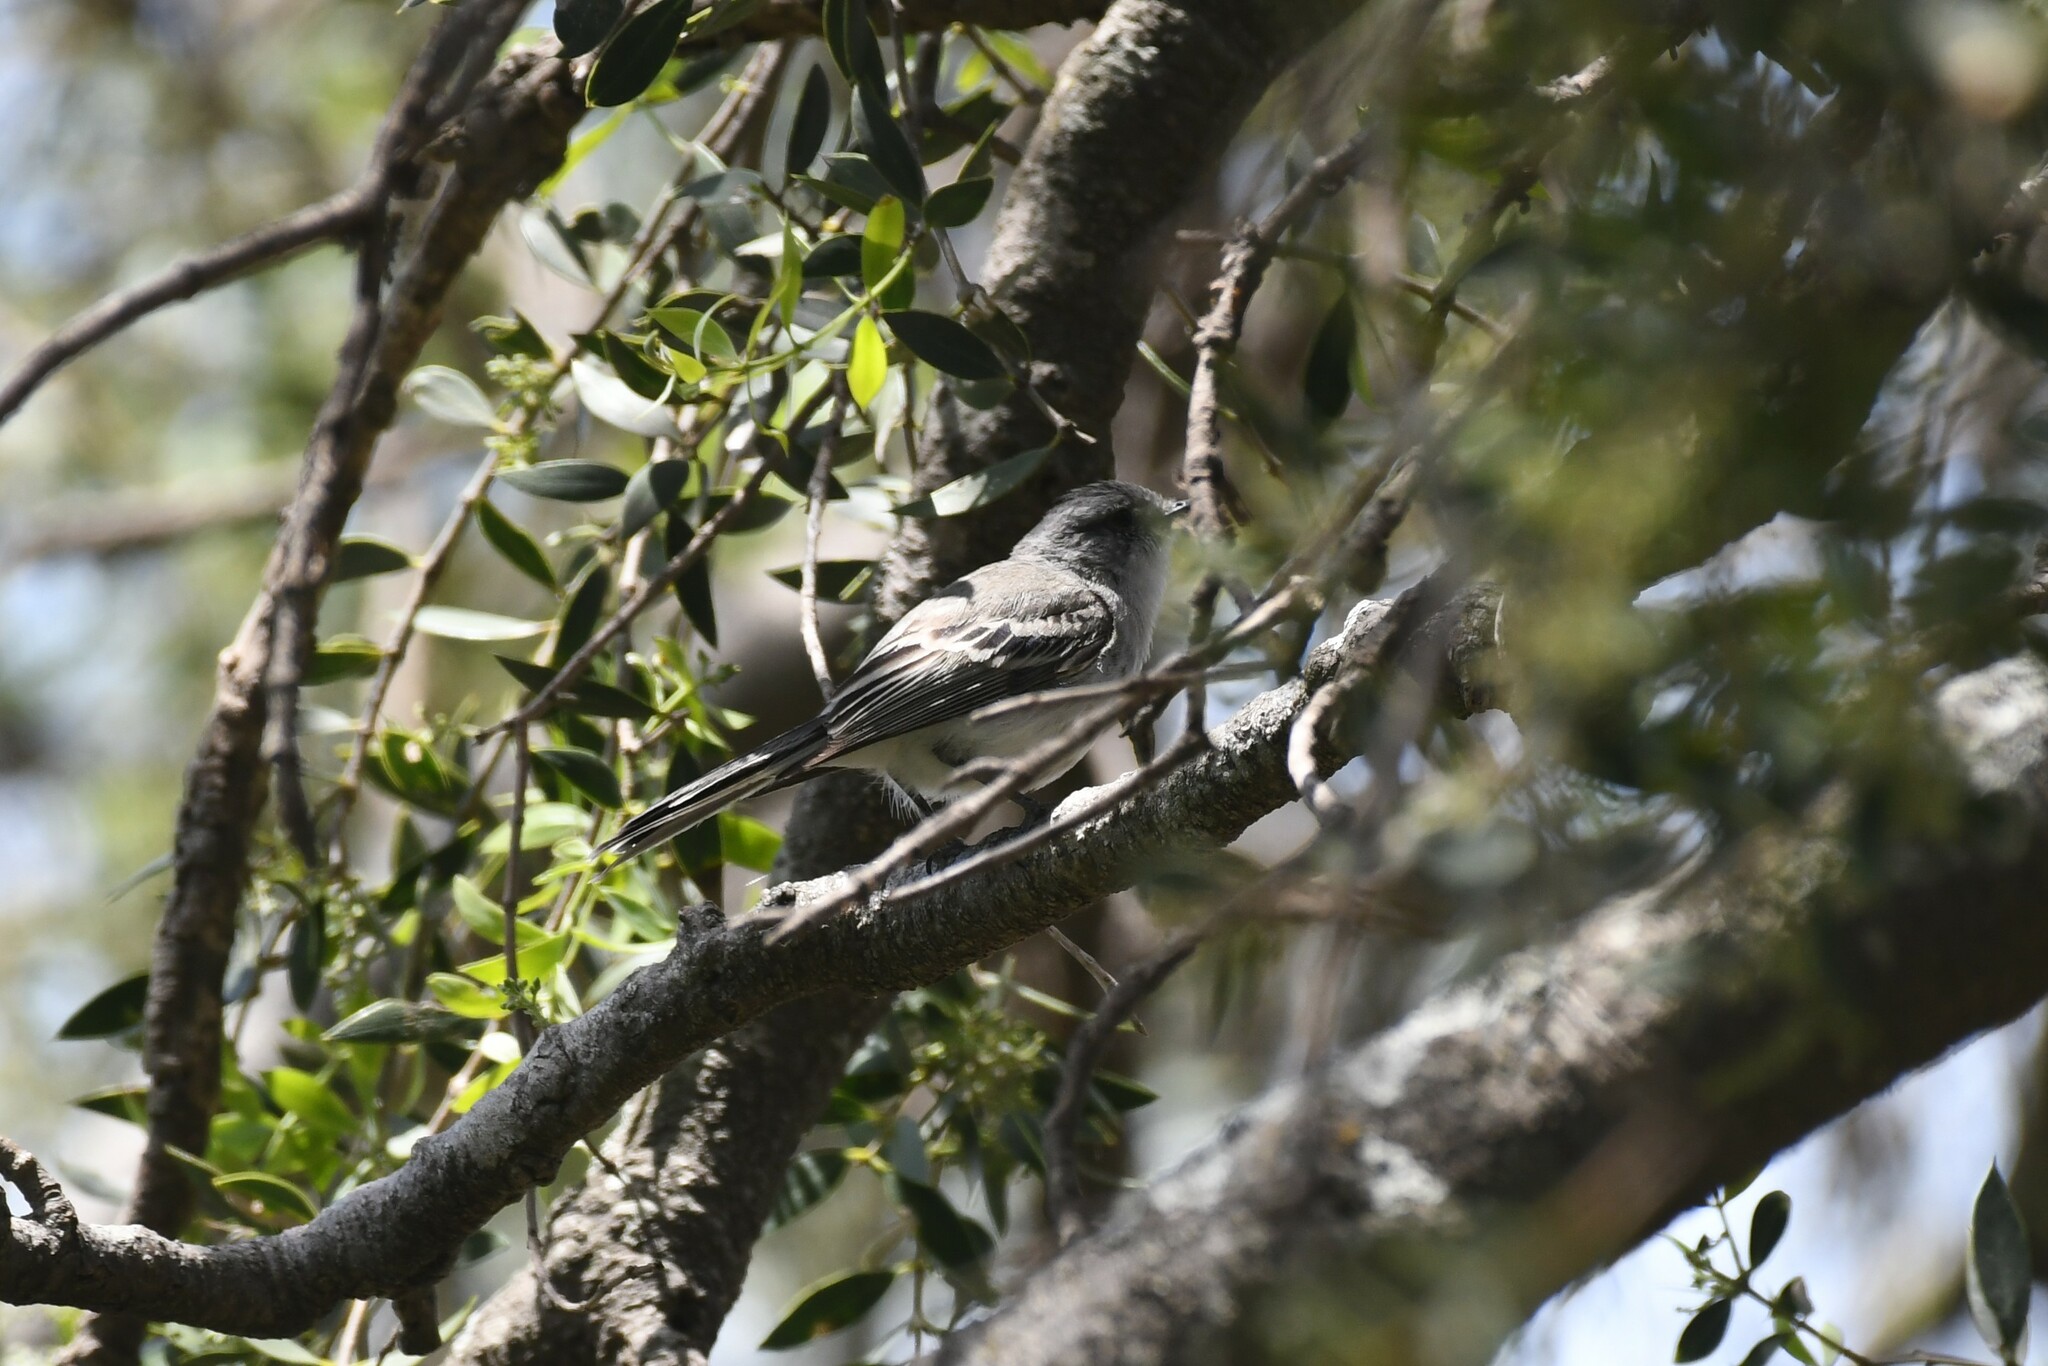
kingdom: Animalia
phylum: Chordata
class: Aves
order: Passeriformes
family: Tyrannidae
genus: Suiriri
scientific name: Suiriri suiriri
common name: Suiriri flycatcher
